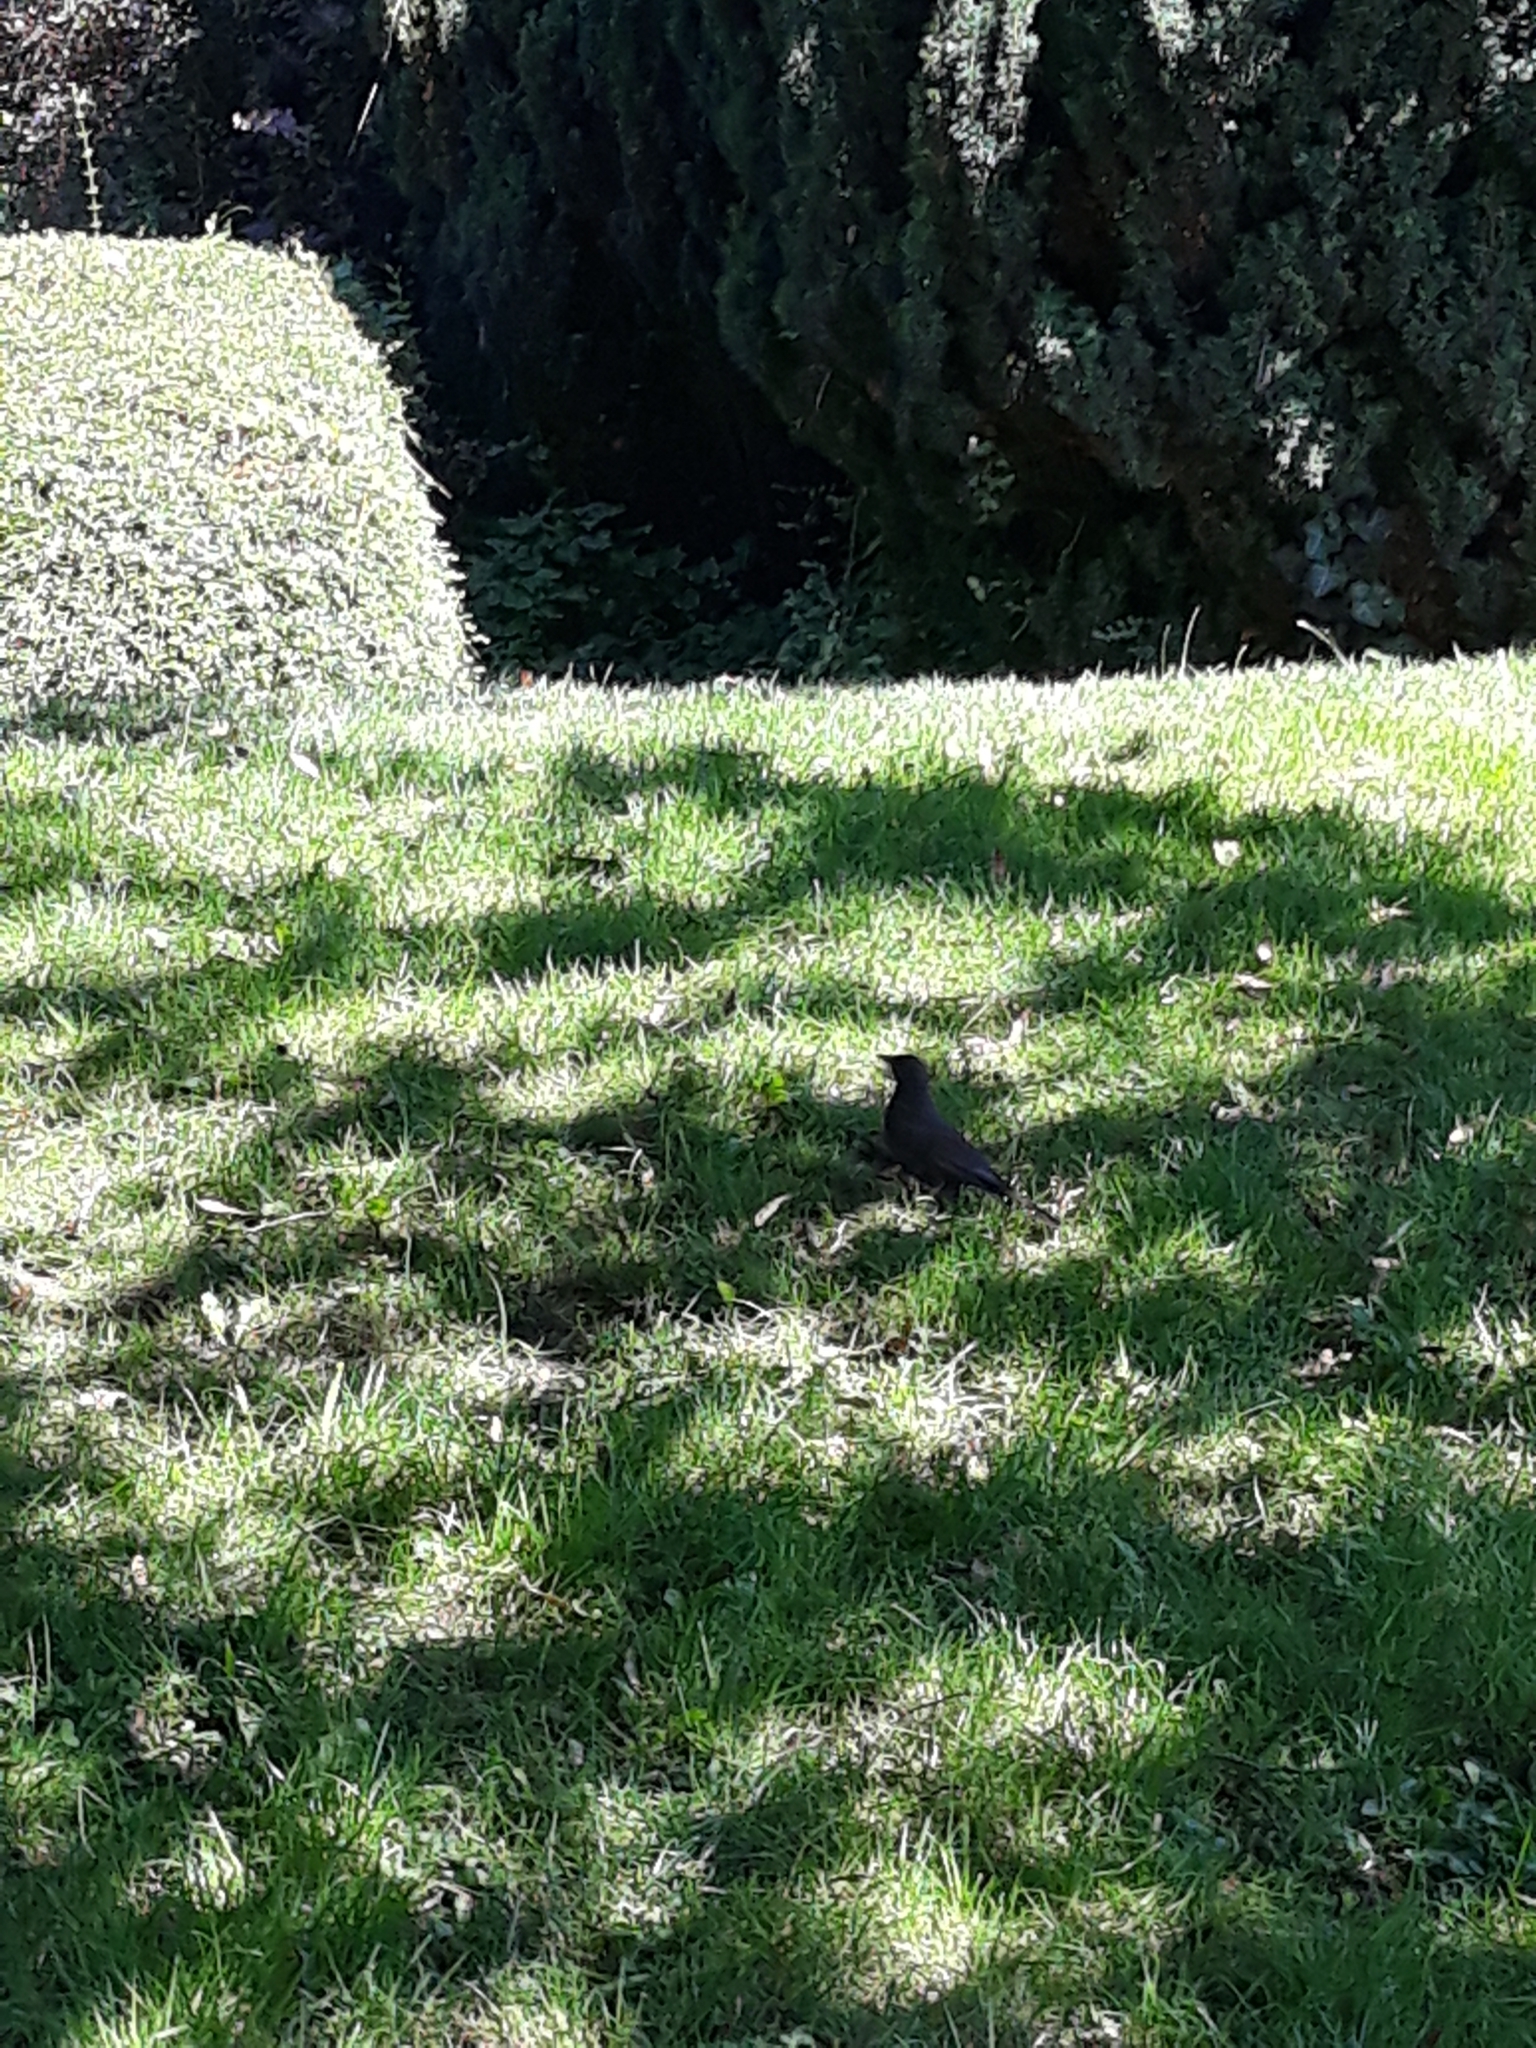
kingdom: Animalia
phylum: Chordata
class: Aves
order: Passeriformes
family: Turdidae
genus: Turdus
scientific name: Turdus merula
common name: Common blackbird
